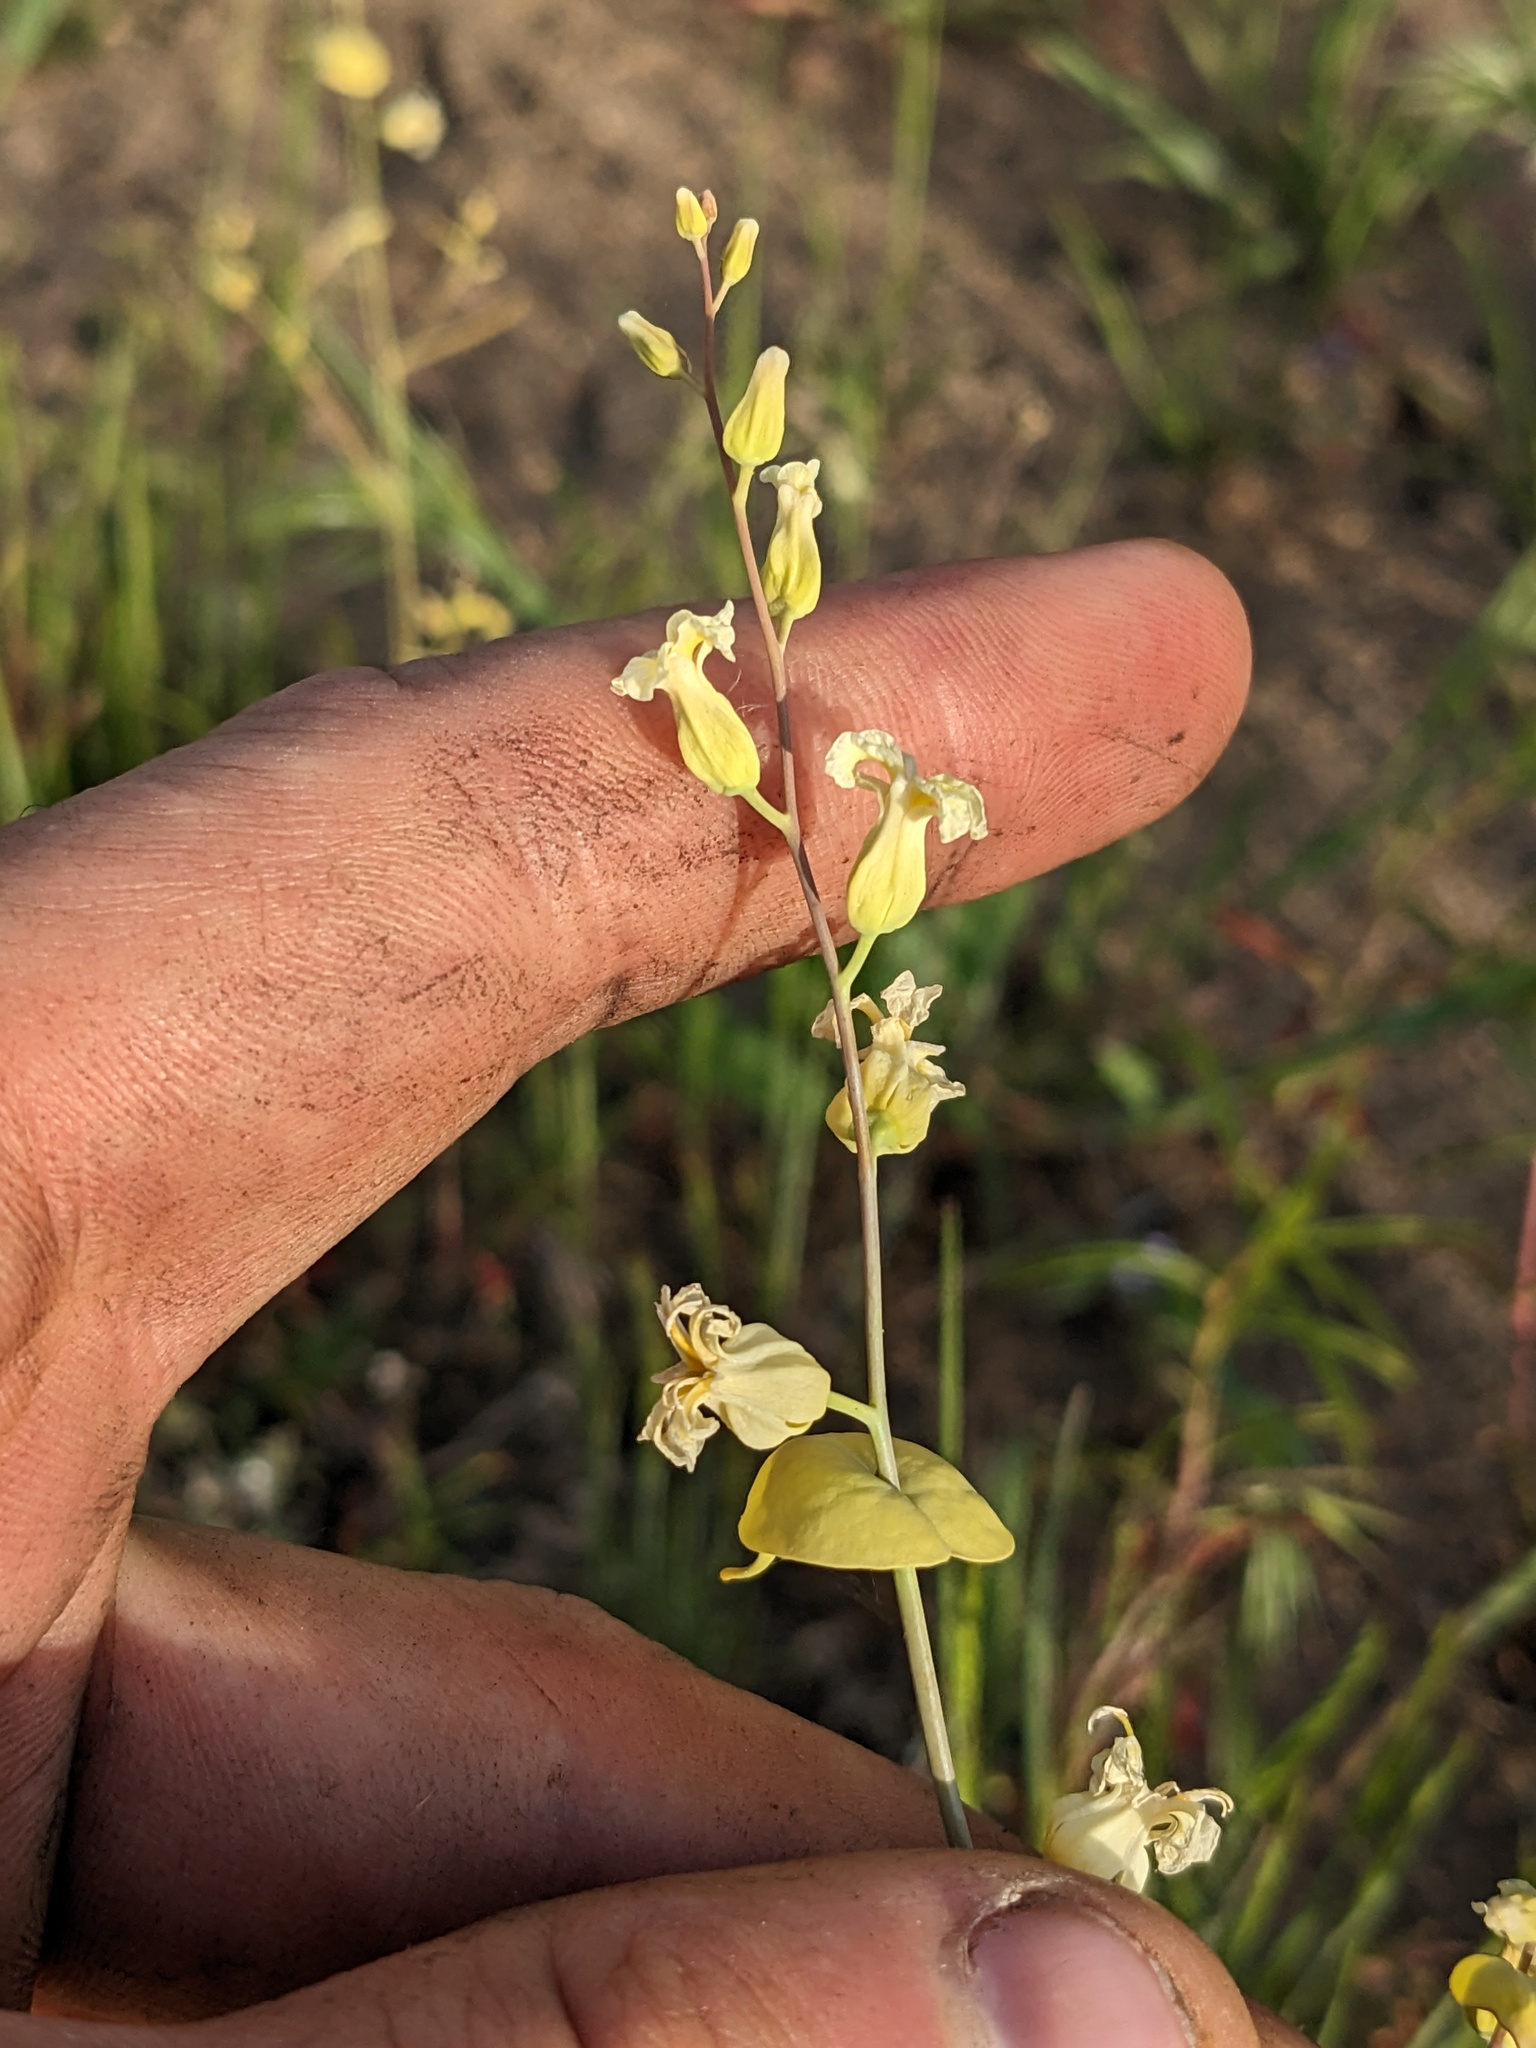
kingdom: Plantae
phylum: Tracheophyta
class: Magnoliopsida
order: Brassicales
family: Brassicaceae
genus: Streptanthus
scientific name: Streptanthus diversifolius
